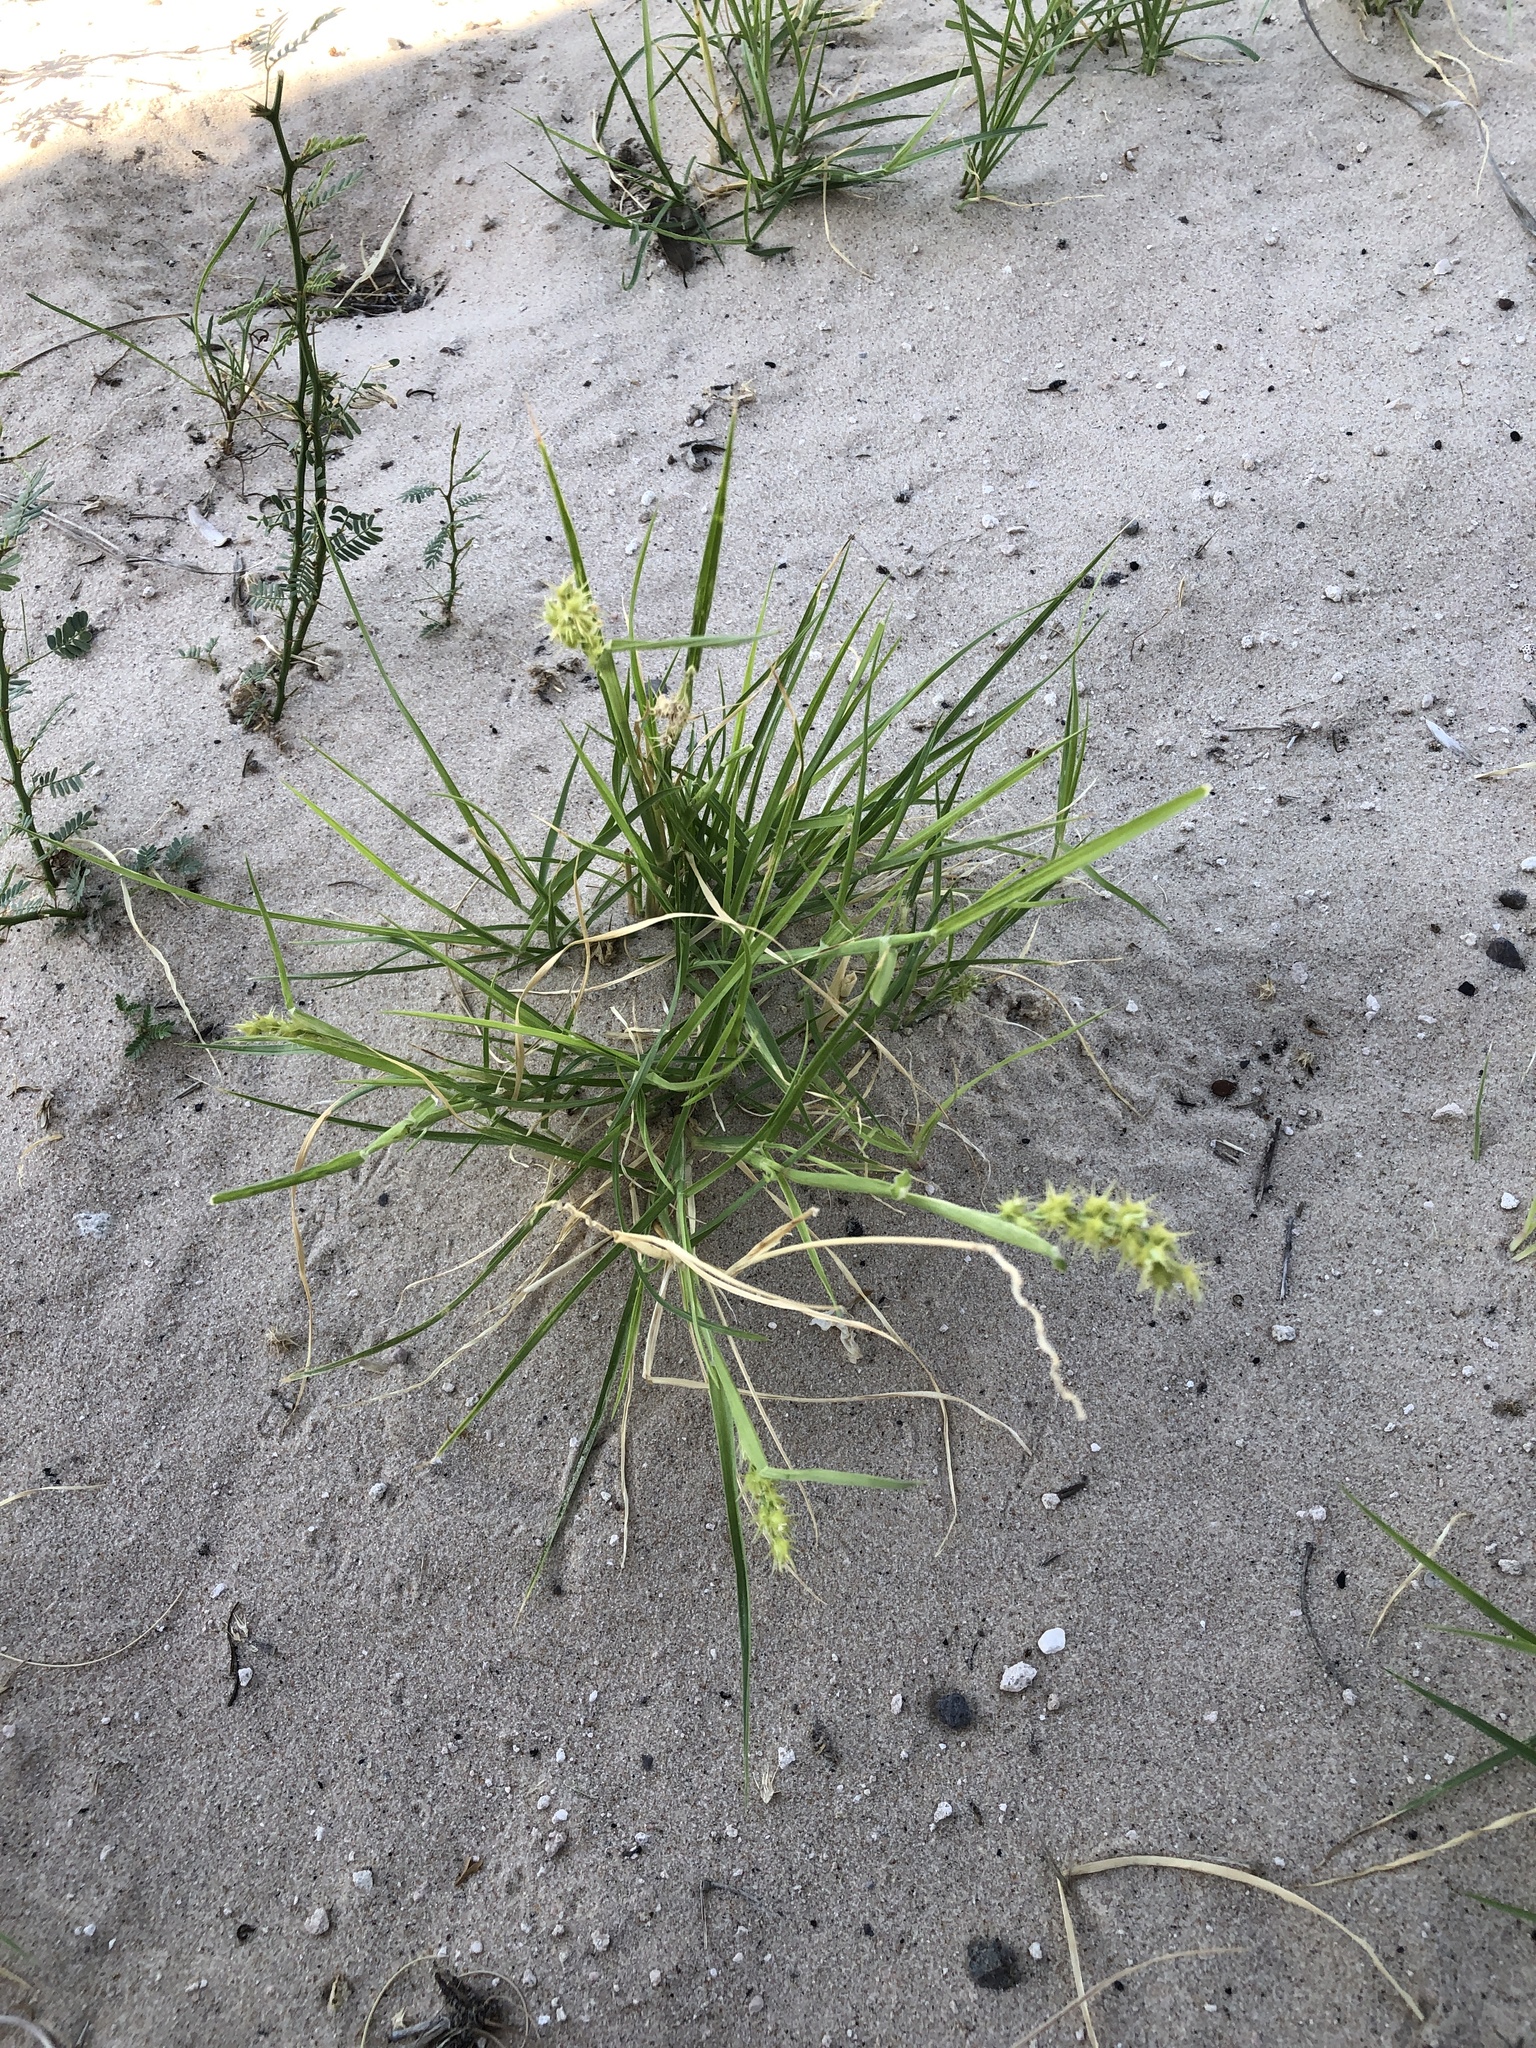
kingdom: Plantae
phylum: Tracheophyta
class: Liliopsida
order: Poales
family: Poaceae
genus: Cenchrus
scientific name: Cenchrus spinifex
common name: Coast sandbur
